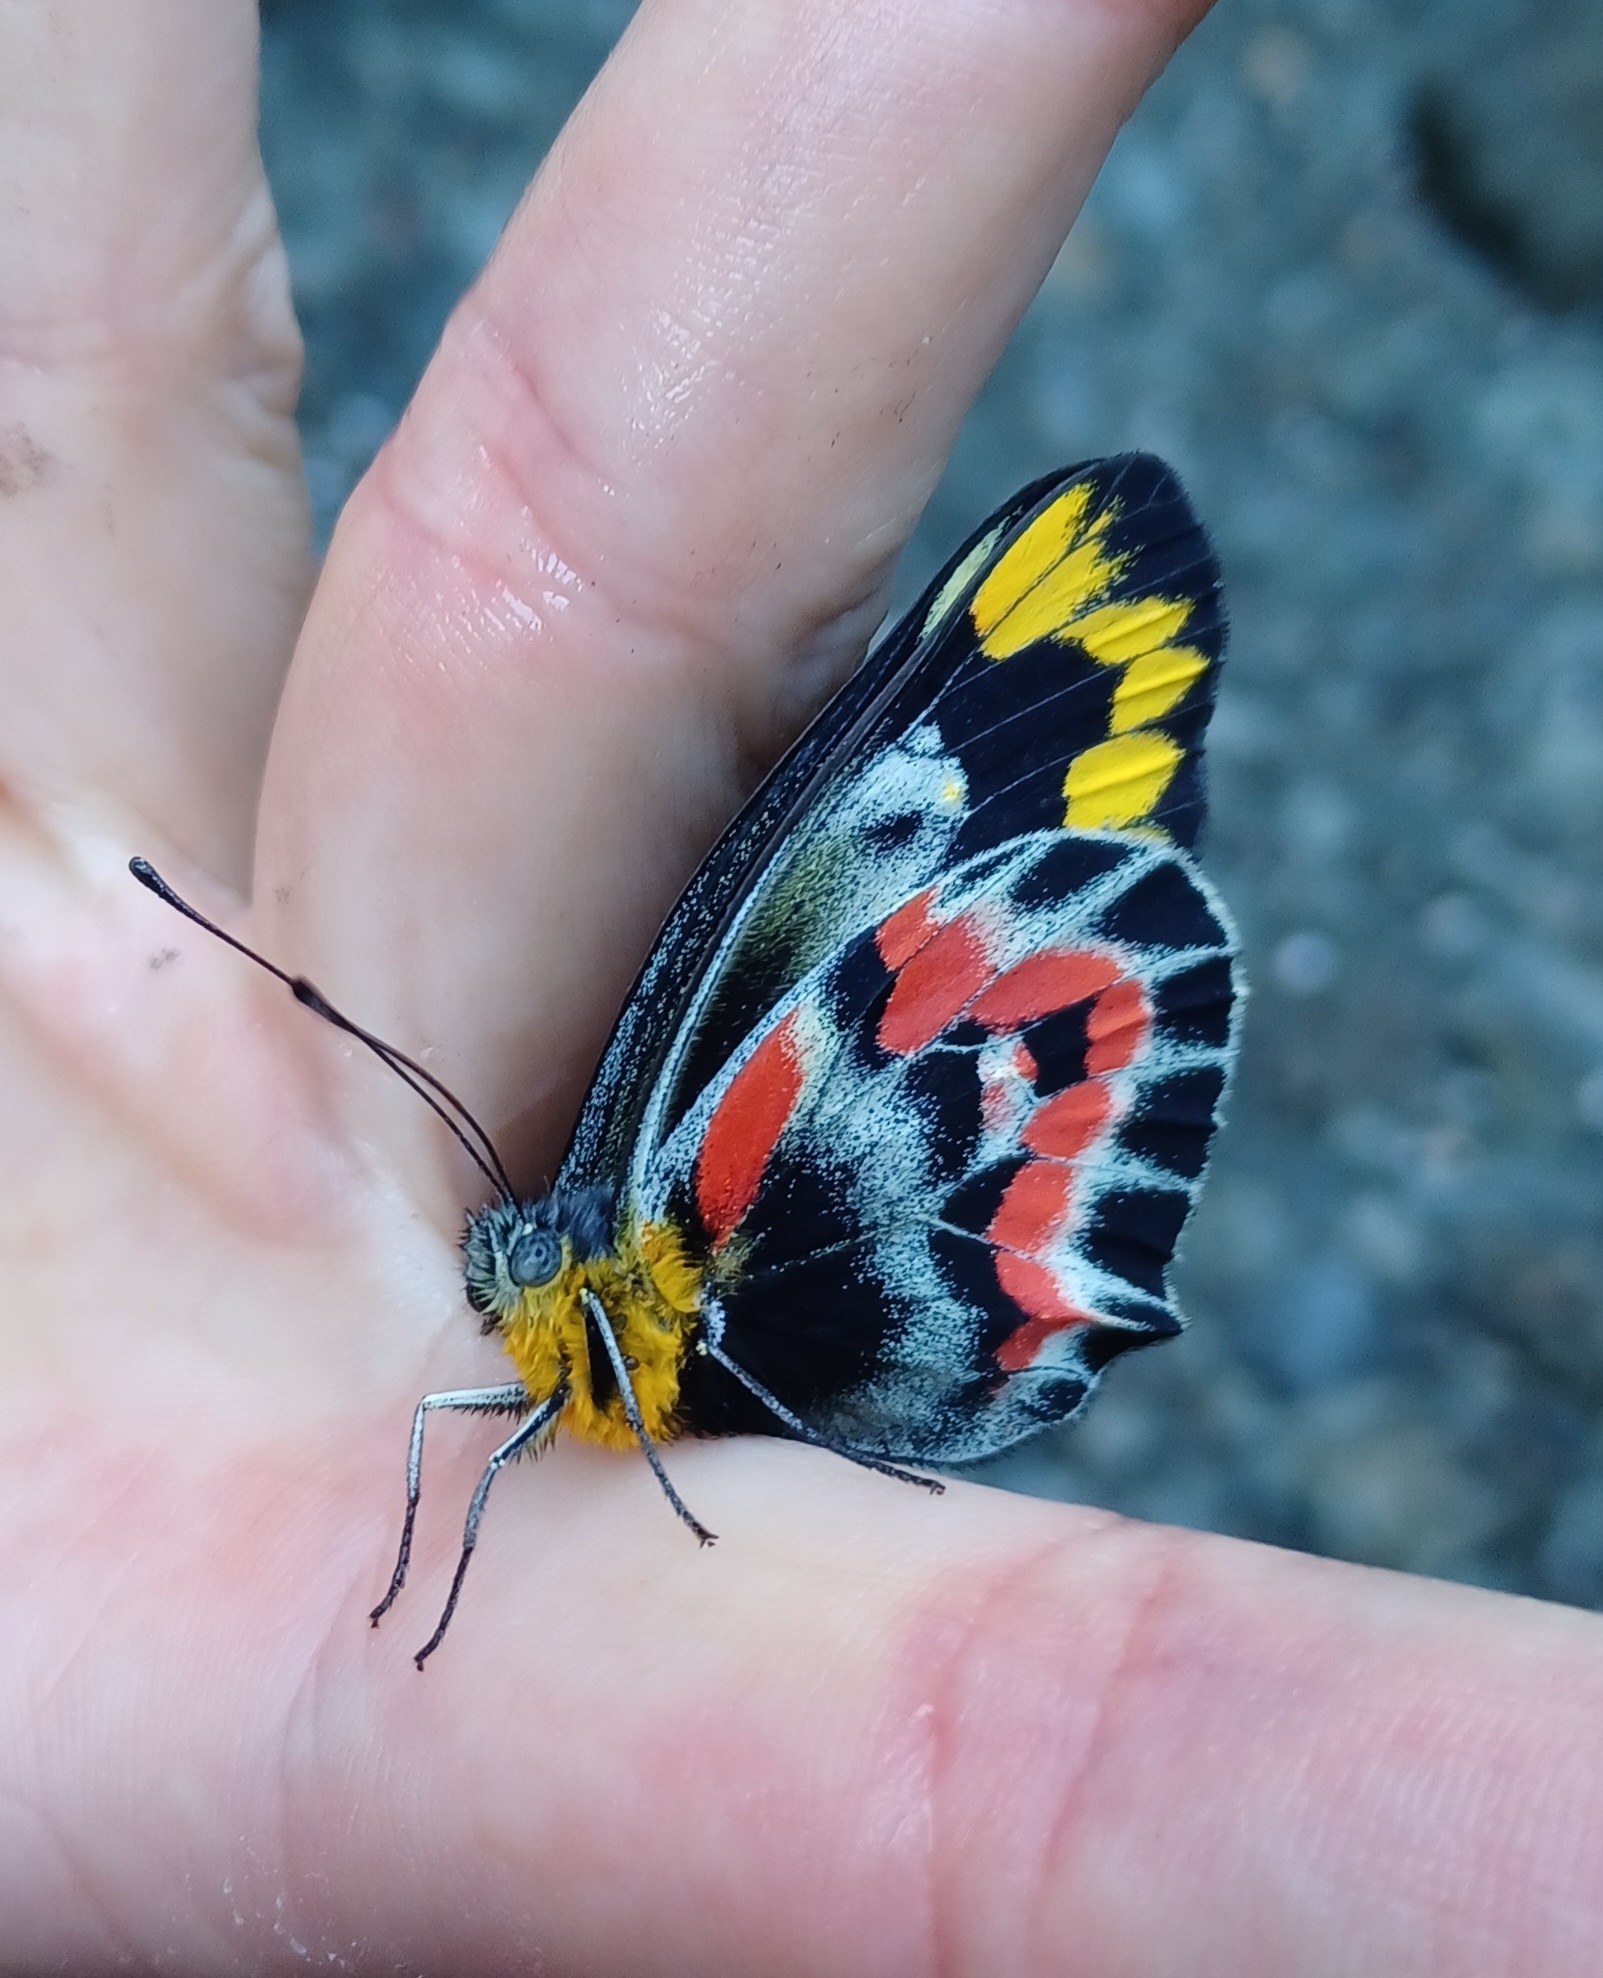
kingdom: Animalia
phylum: Arthropoda
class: Insecta
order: Lepidoptera
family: Pieridae
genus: Delias
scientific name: Delias harpalyce
